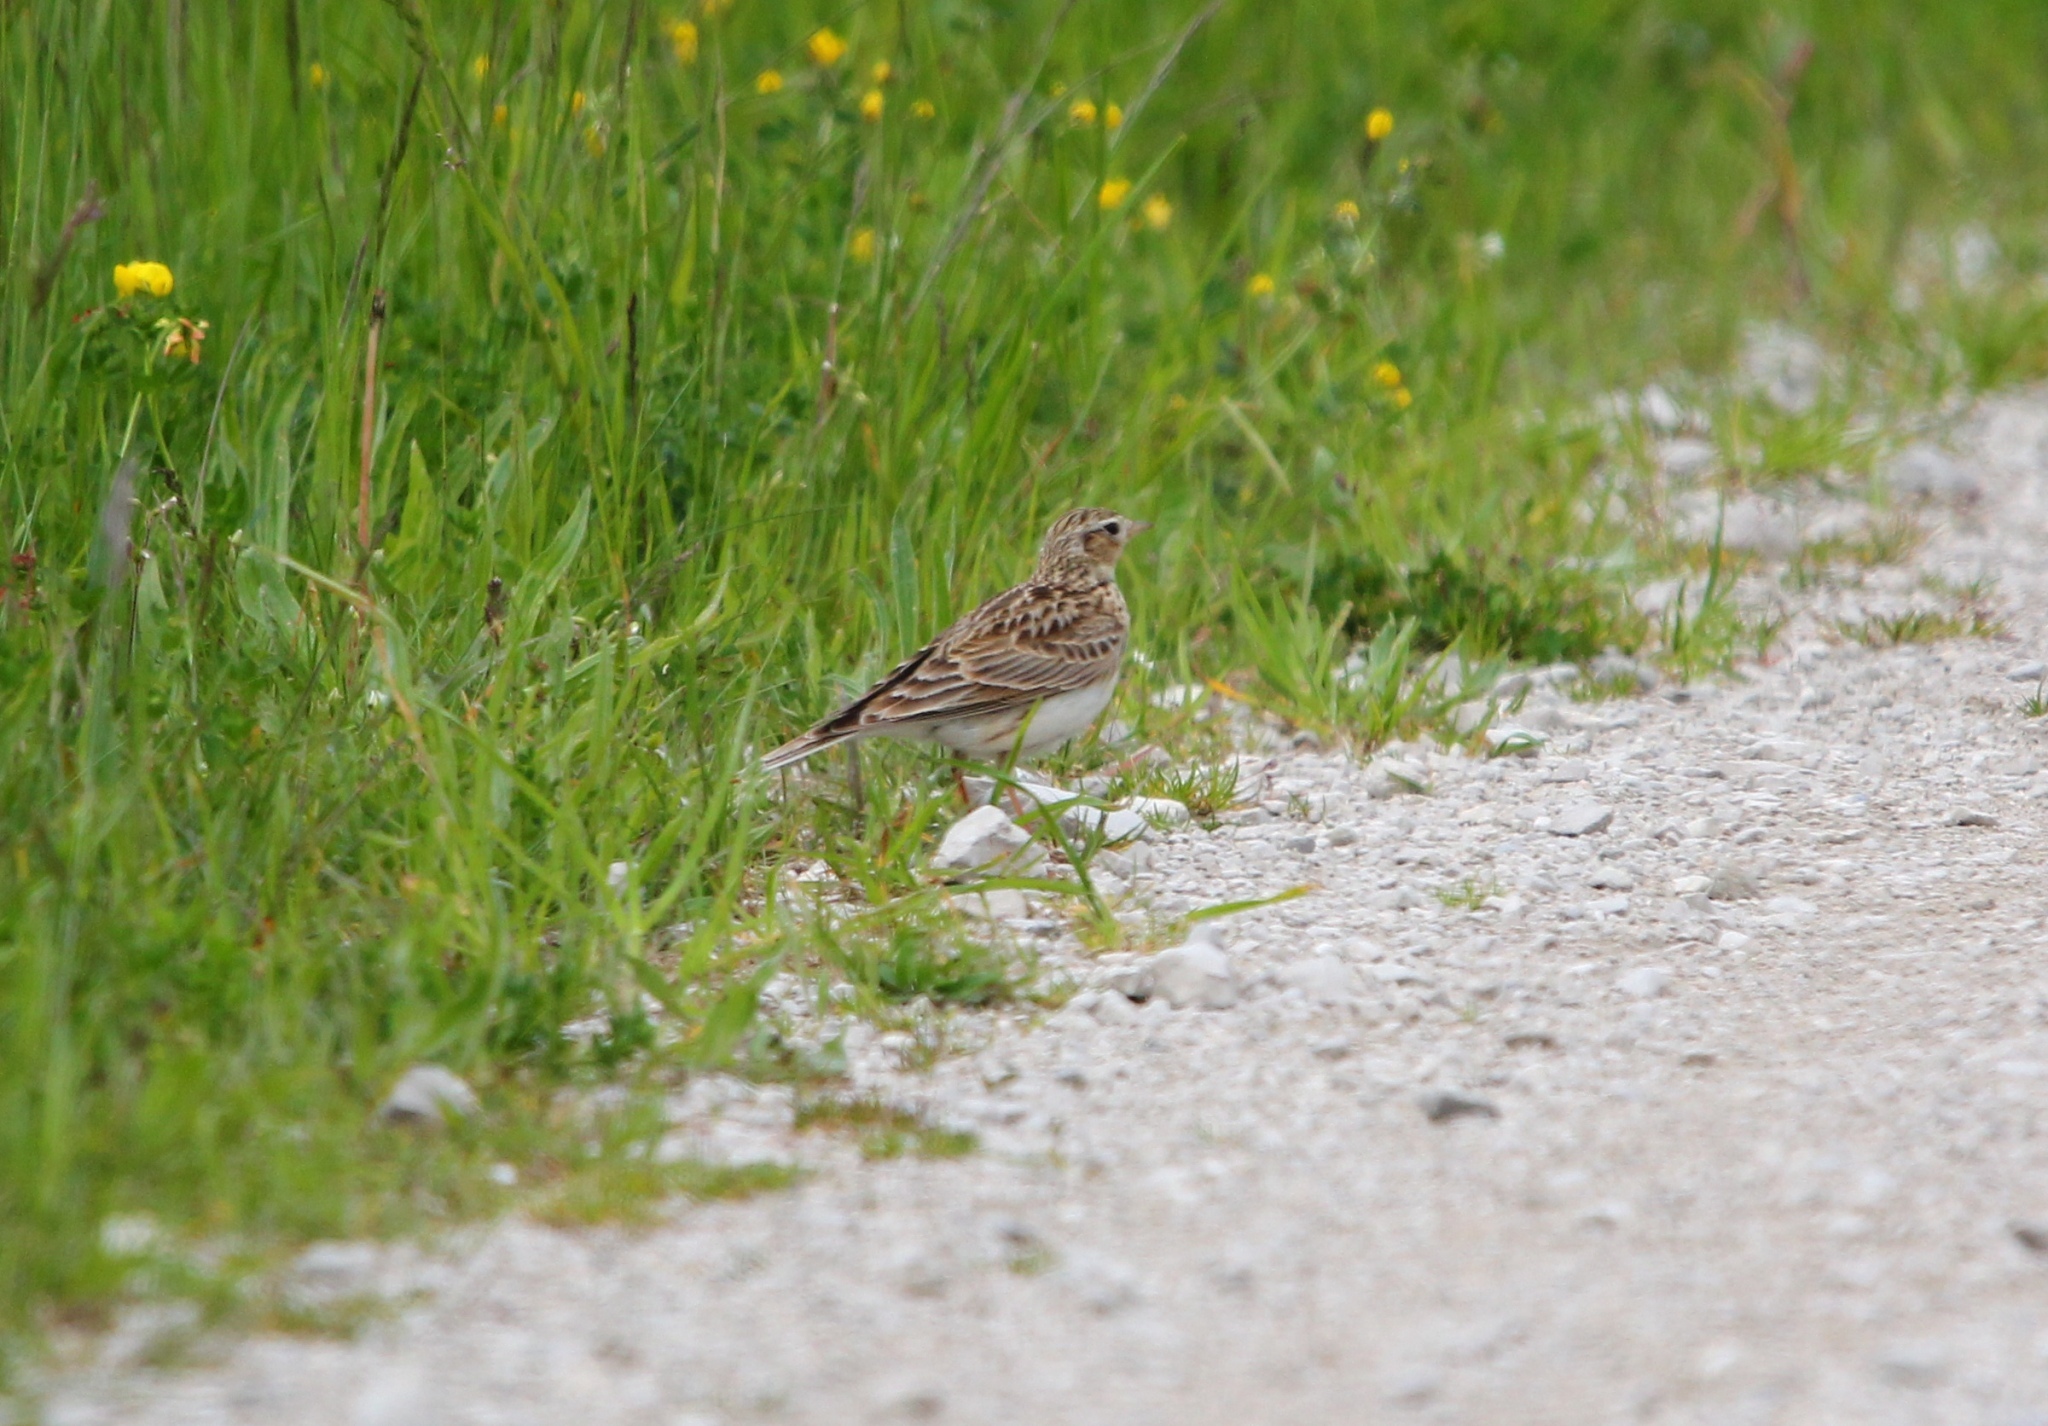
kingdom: Animalia
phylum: Chordata
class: Aves
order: Passeriformes
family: Alaudidae
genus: Alauda
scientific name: Alauda arvensis
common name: Eurasian skylark
